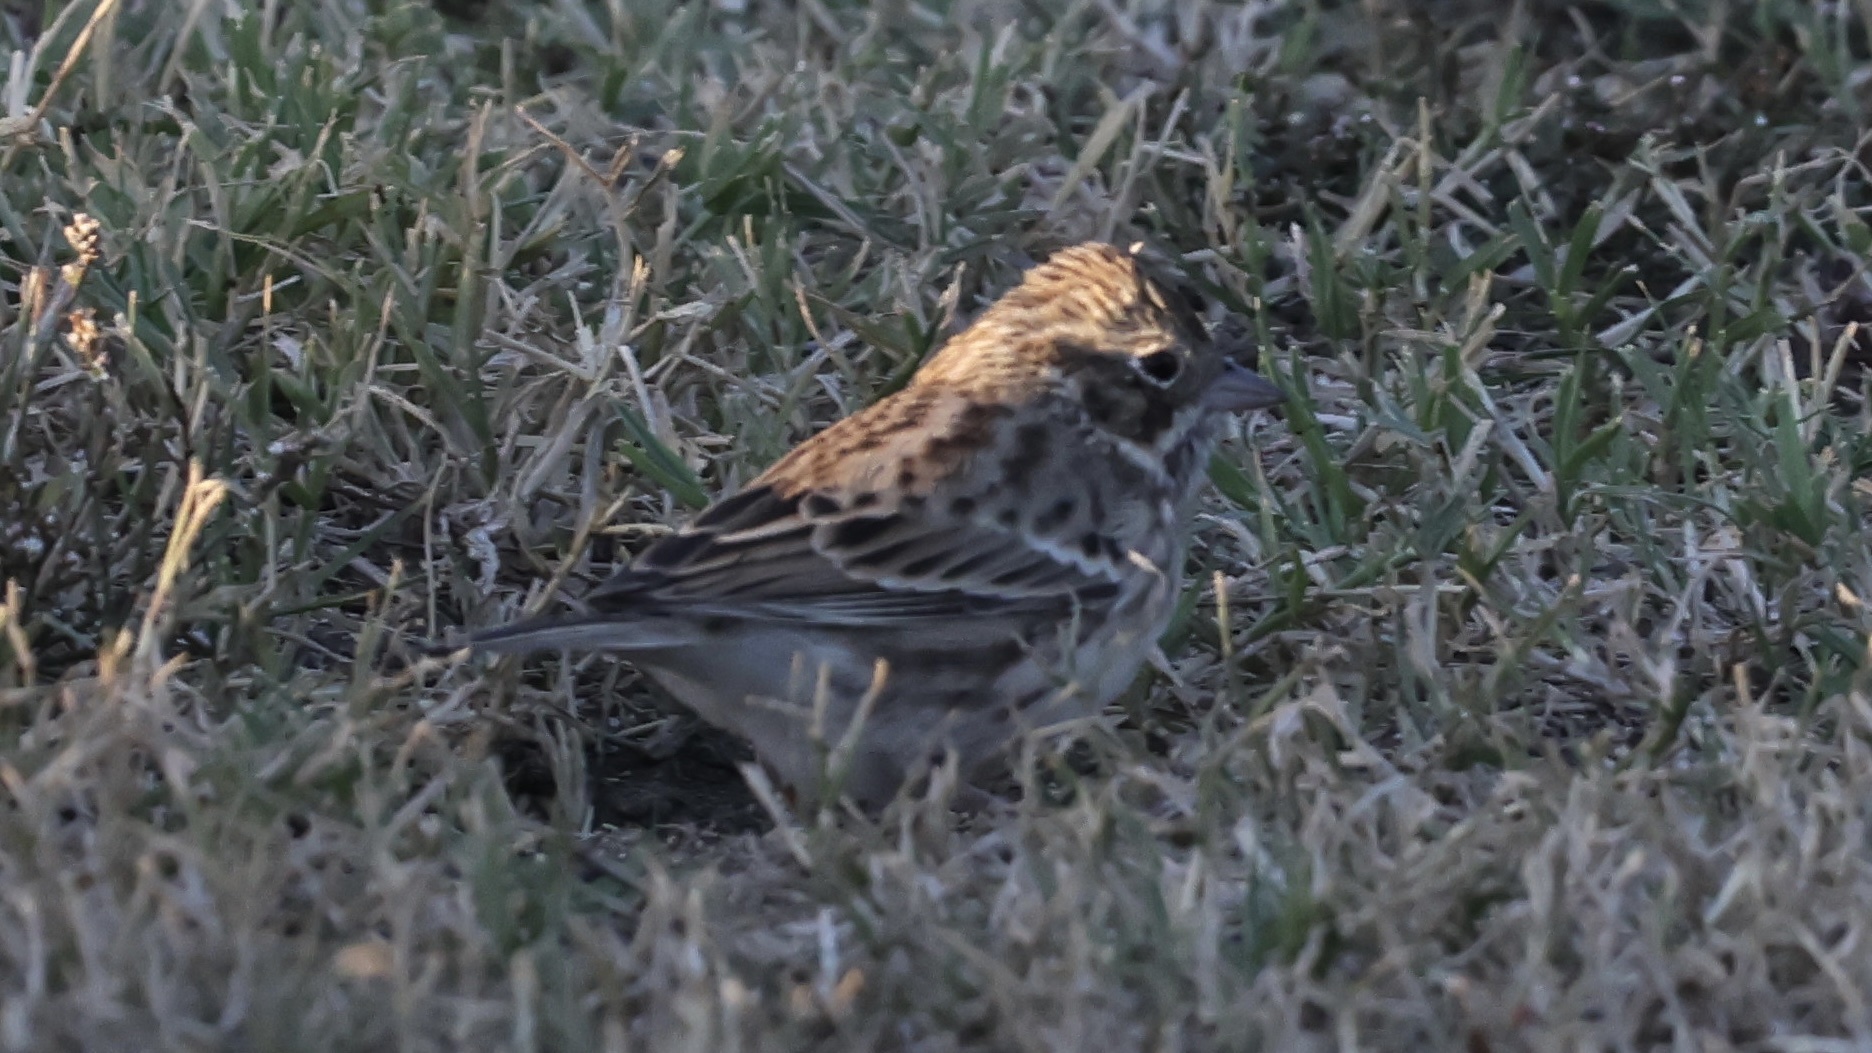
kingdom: Animalia
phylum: Chordata
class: Aves
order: Passeriformes
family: Passerellidae
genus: Pooecetes
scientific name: Pooecetes gramineus
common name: Vesper sparrow
